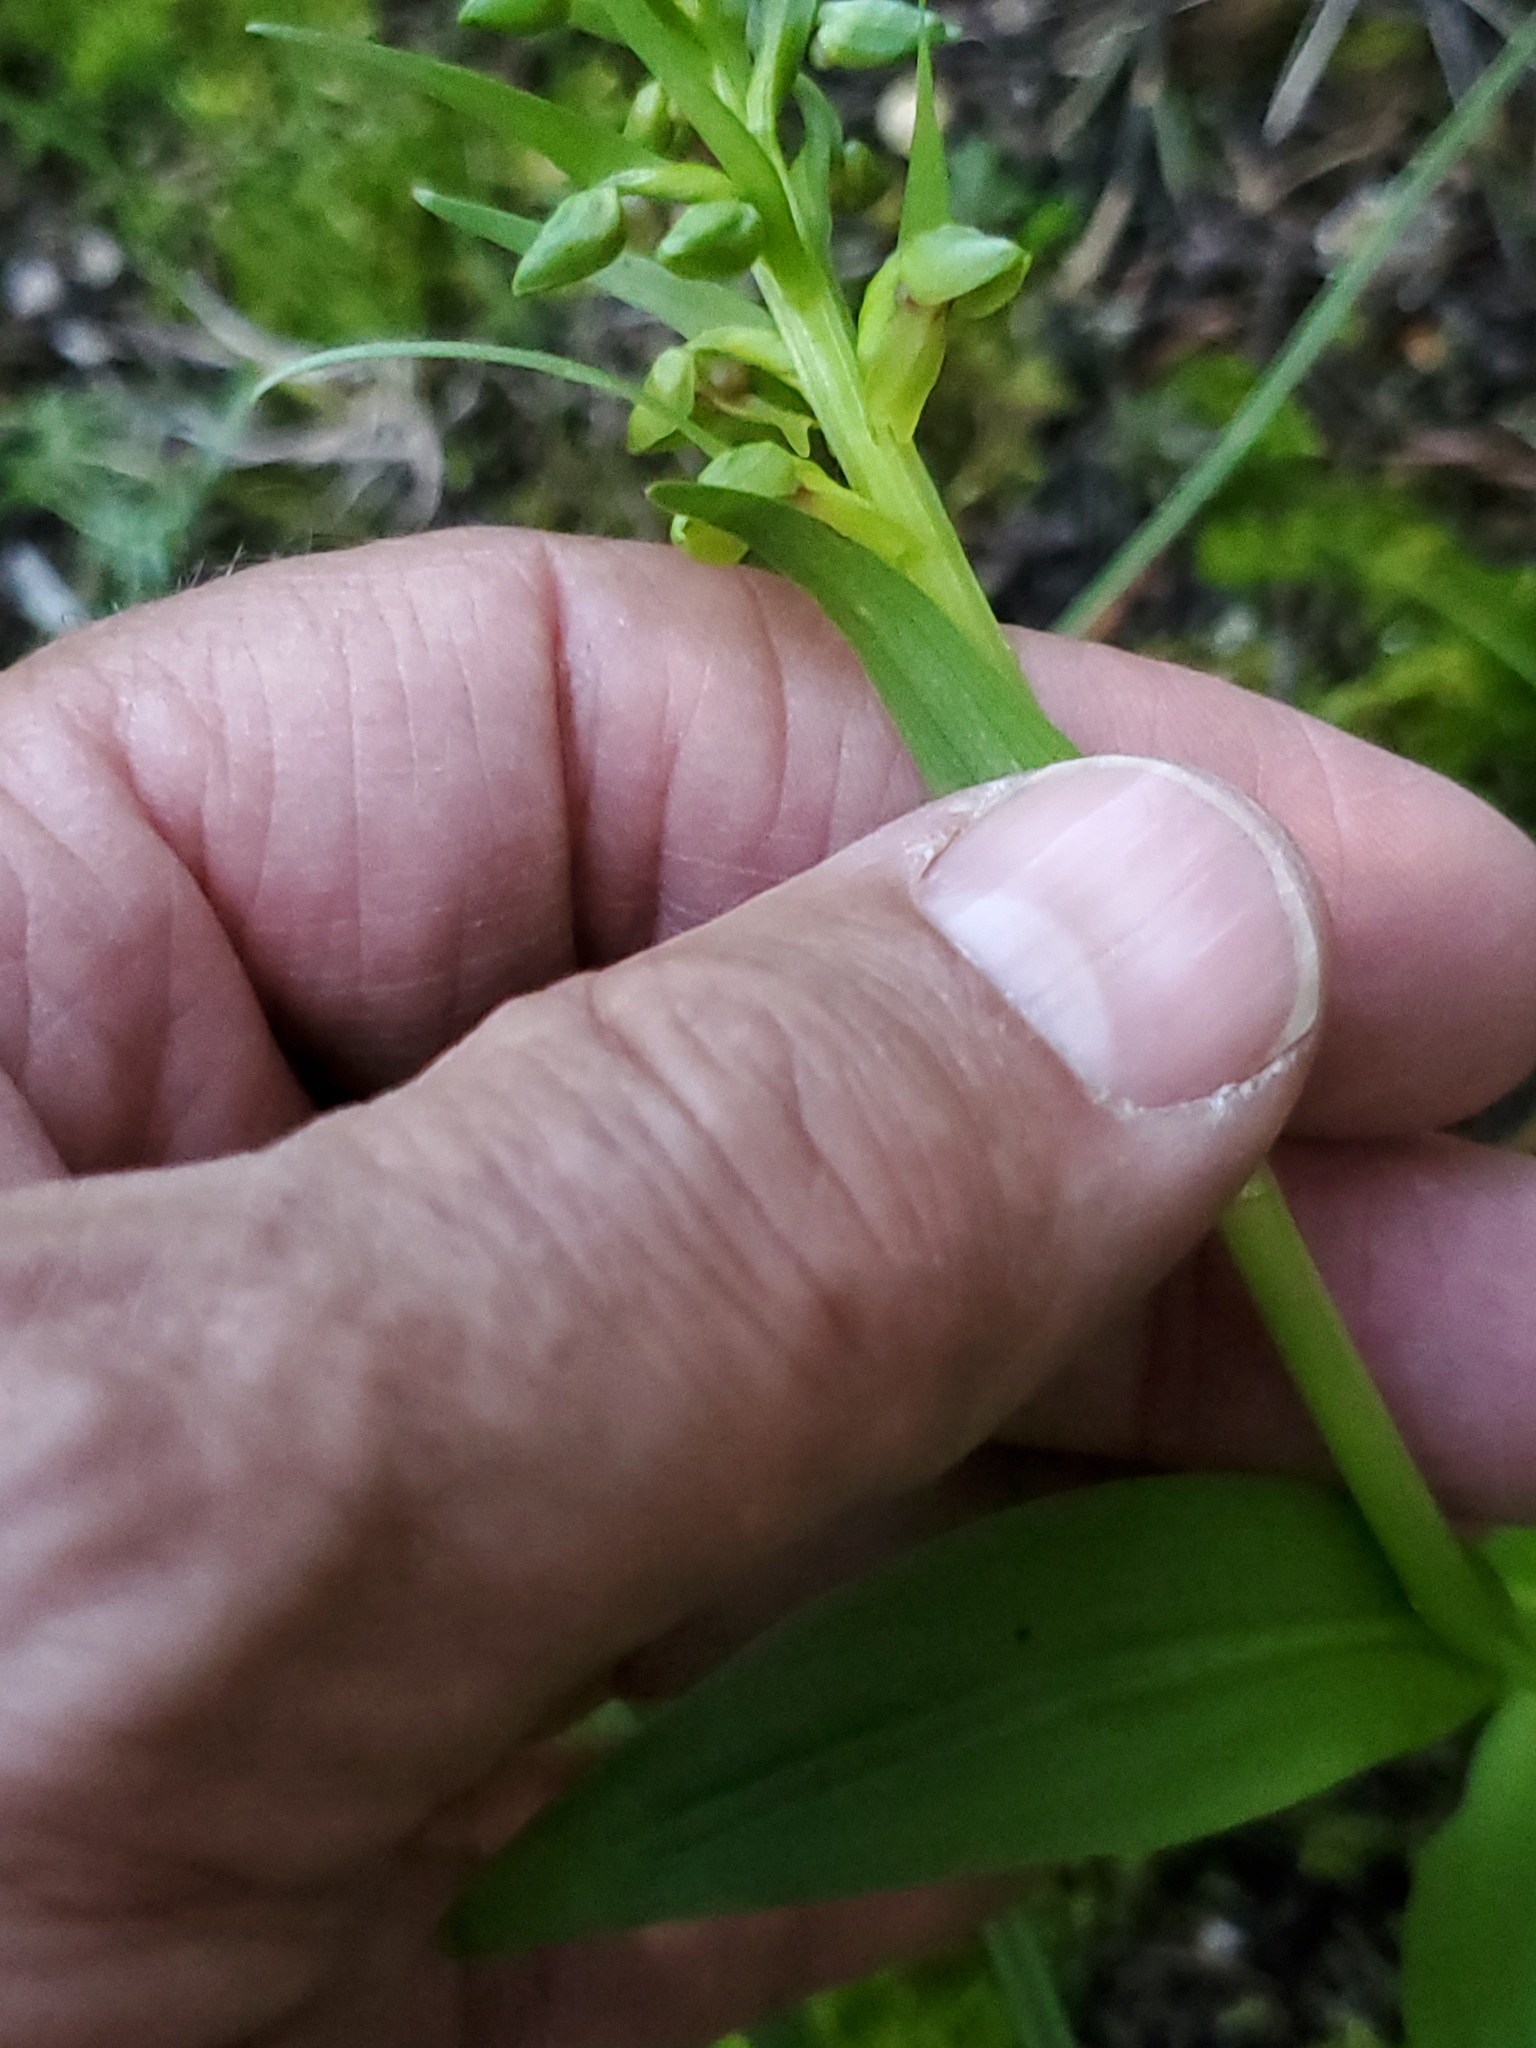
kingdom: Plantae
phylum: Tracheophyta
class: Liliopsida
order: Asparagales
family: Orchidaceae
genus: Dactylorhiza
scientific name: Dactylorhiza viridis
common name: Longbract frog orchid
